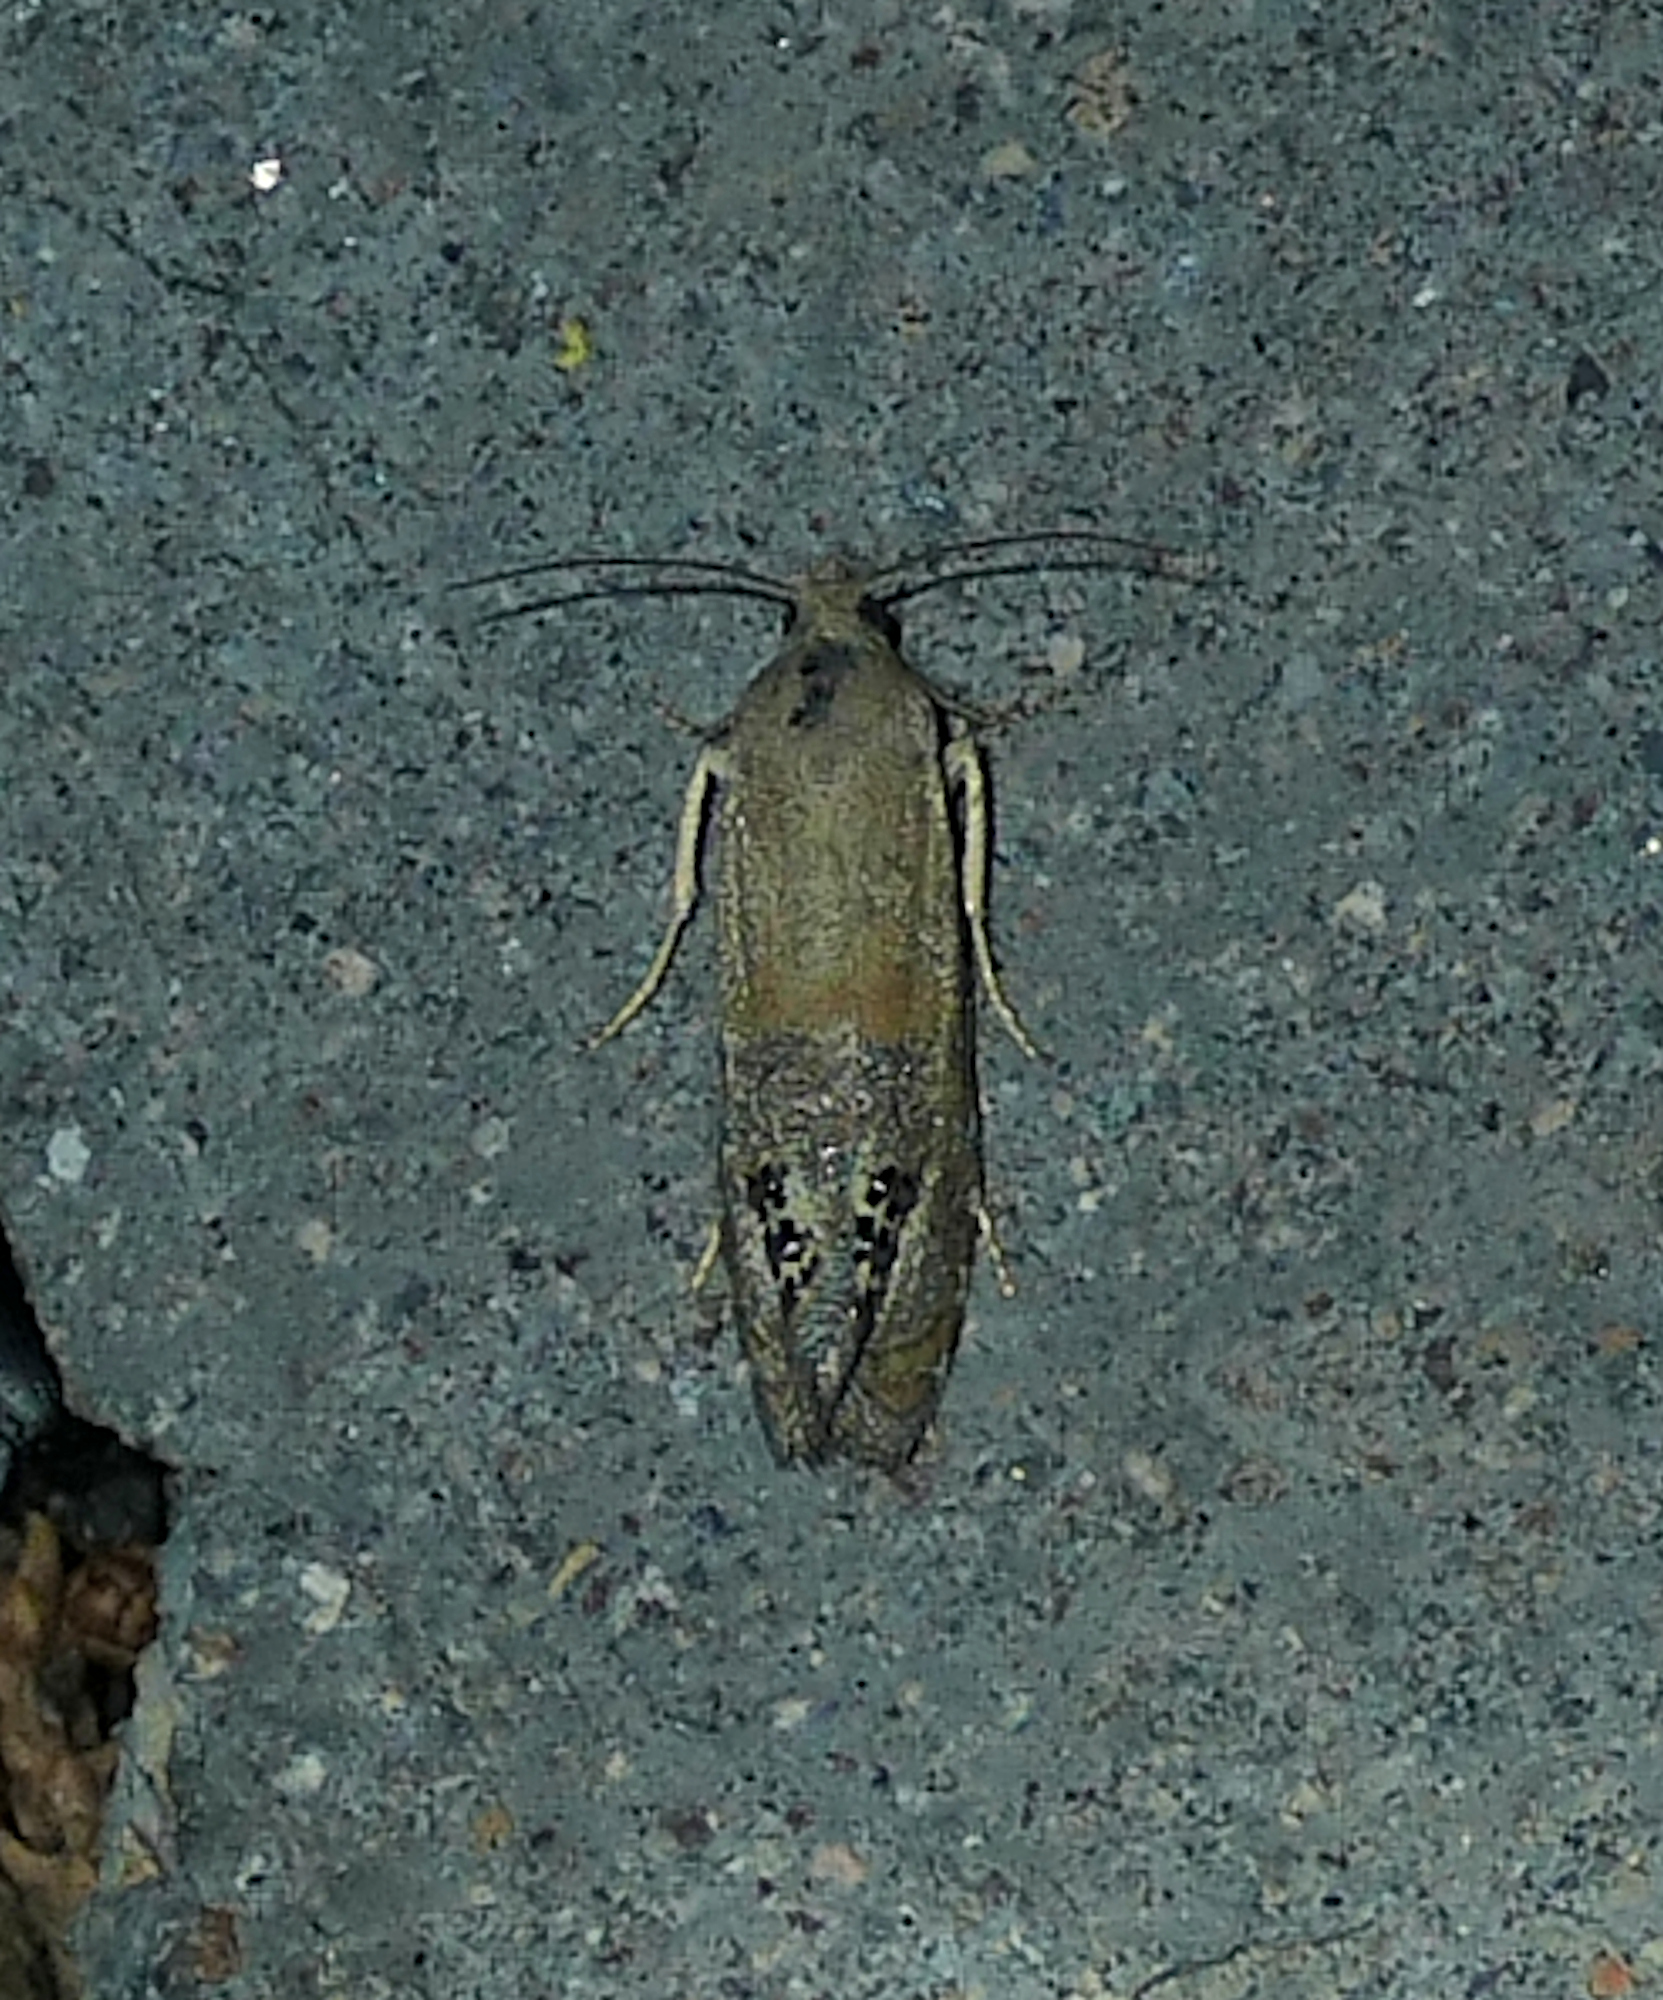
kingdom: Animalia
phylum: Arthropoda
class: Insecta
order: Lepidoptera
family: Tortricidae
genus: Pelochrista
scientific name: Pelochrista scintillana
